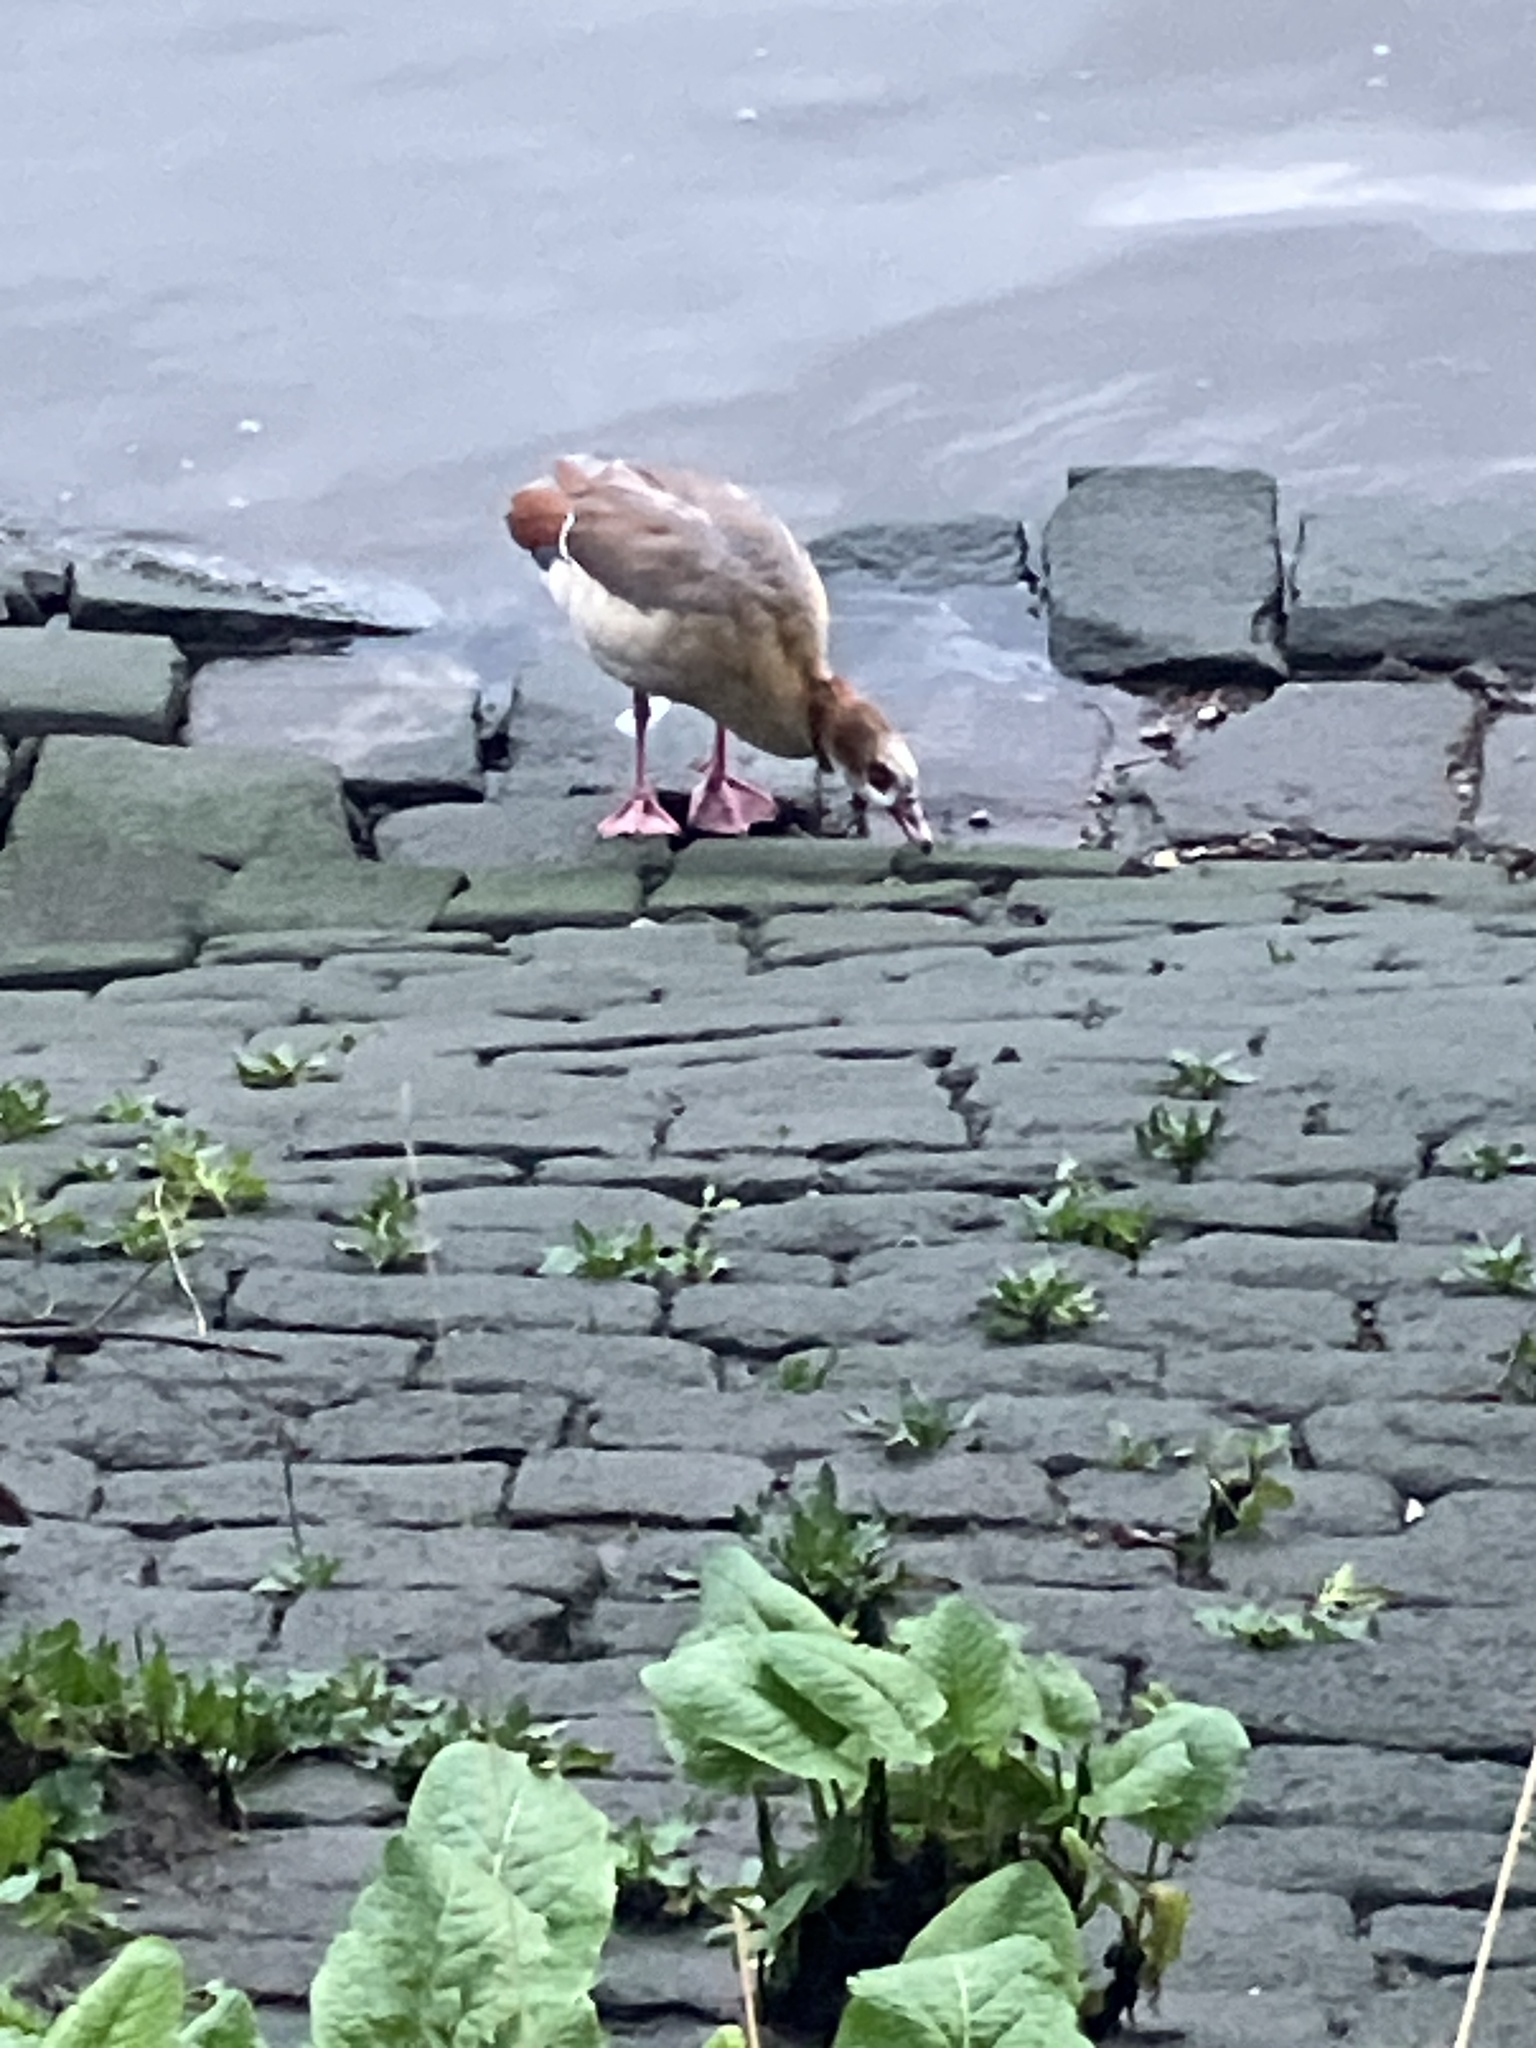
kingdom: Animalia
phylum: Chordata
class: Aves
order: Anseriformes
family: Anatidae
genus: Alopochen
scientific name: Alopochen aegyptiaca
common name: Egyptian goose
